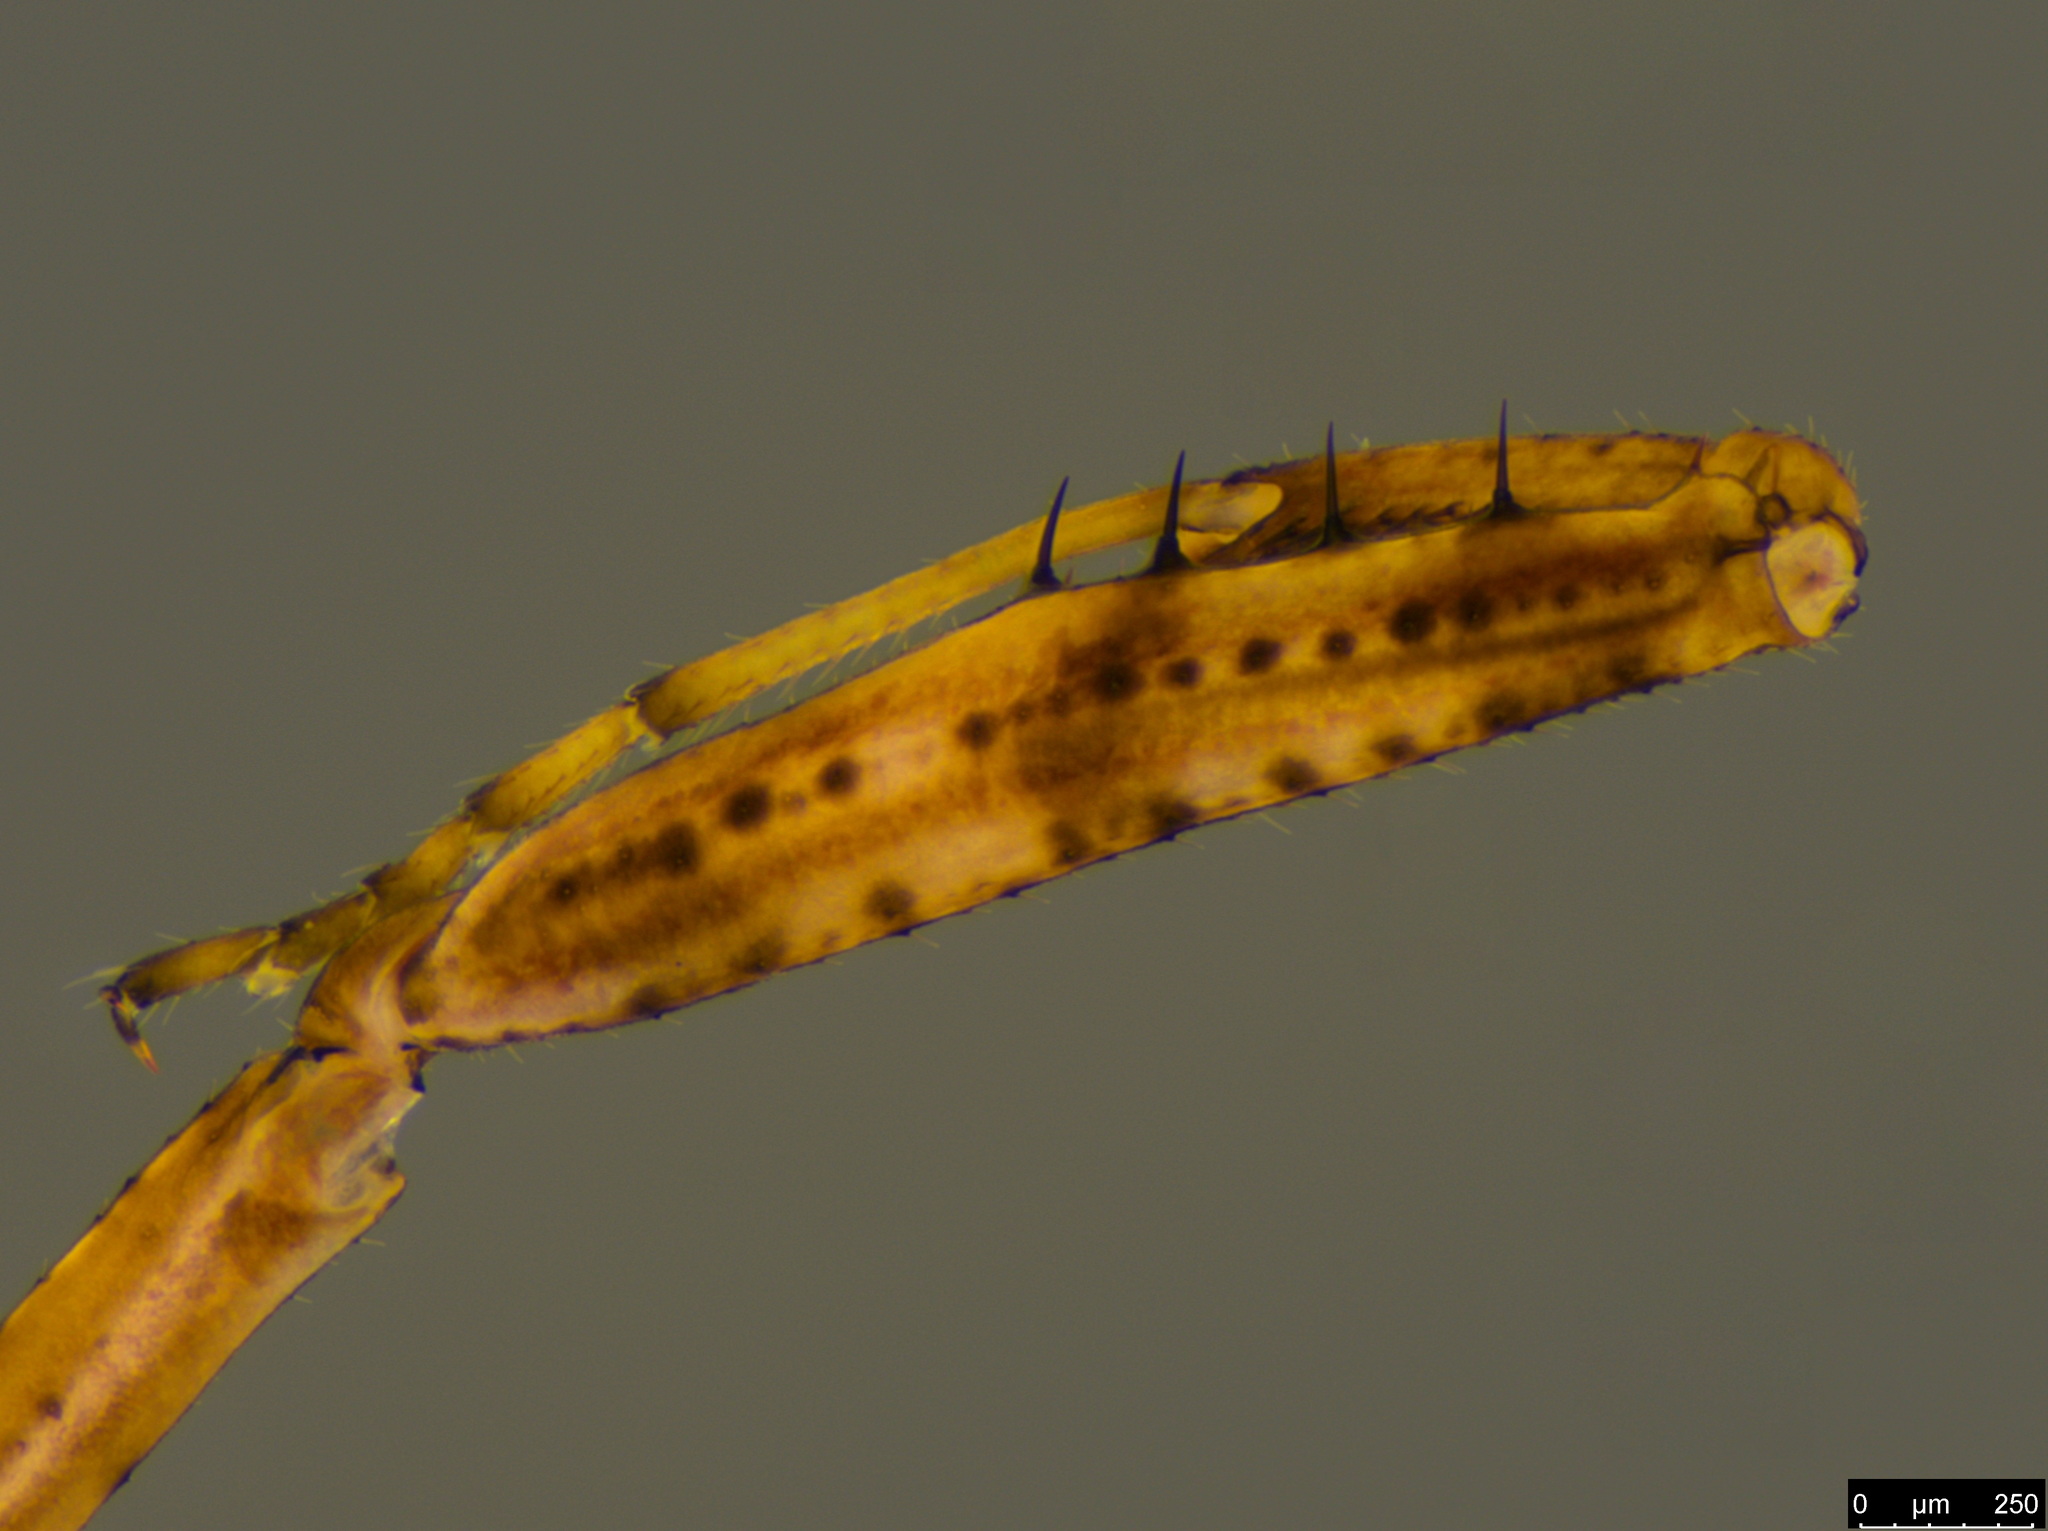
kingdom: Animalia
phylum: Arthropoda
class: Insecta
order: Mantodea
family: Mantidae
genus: Archimantis
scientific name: Archimantis latistyla
